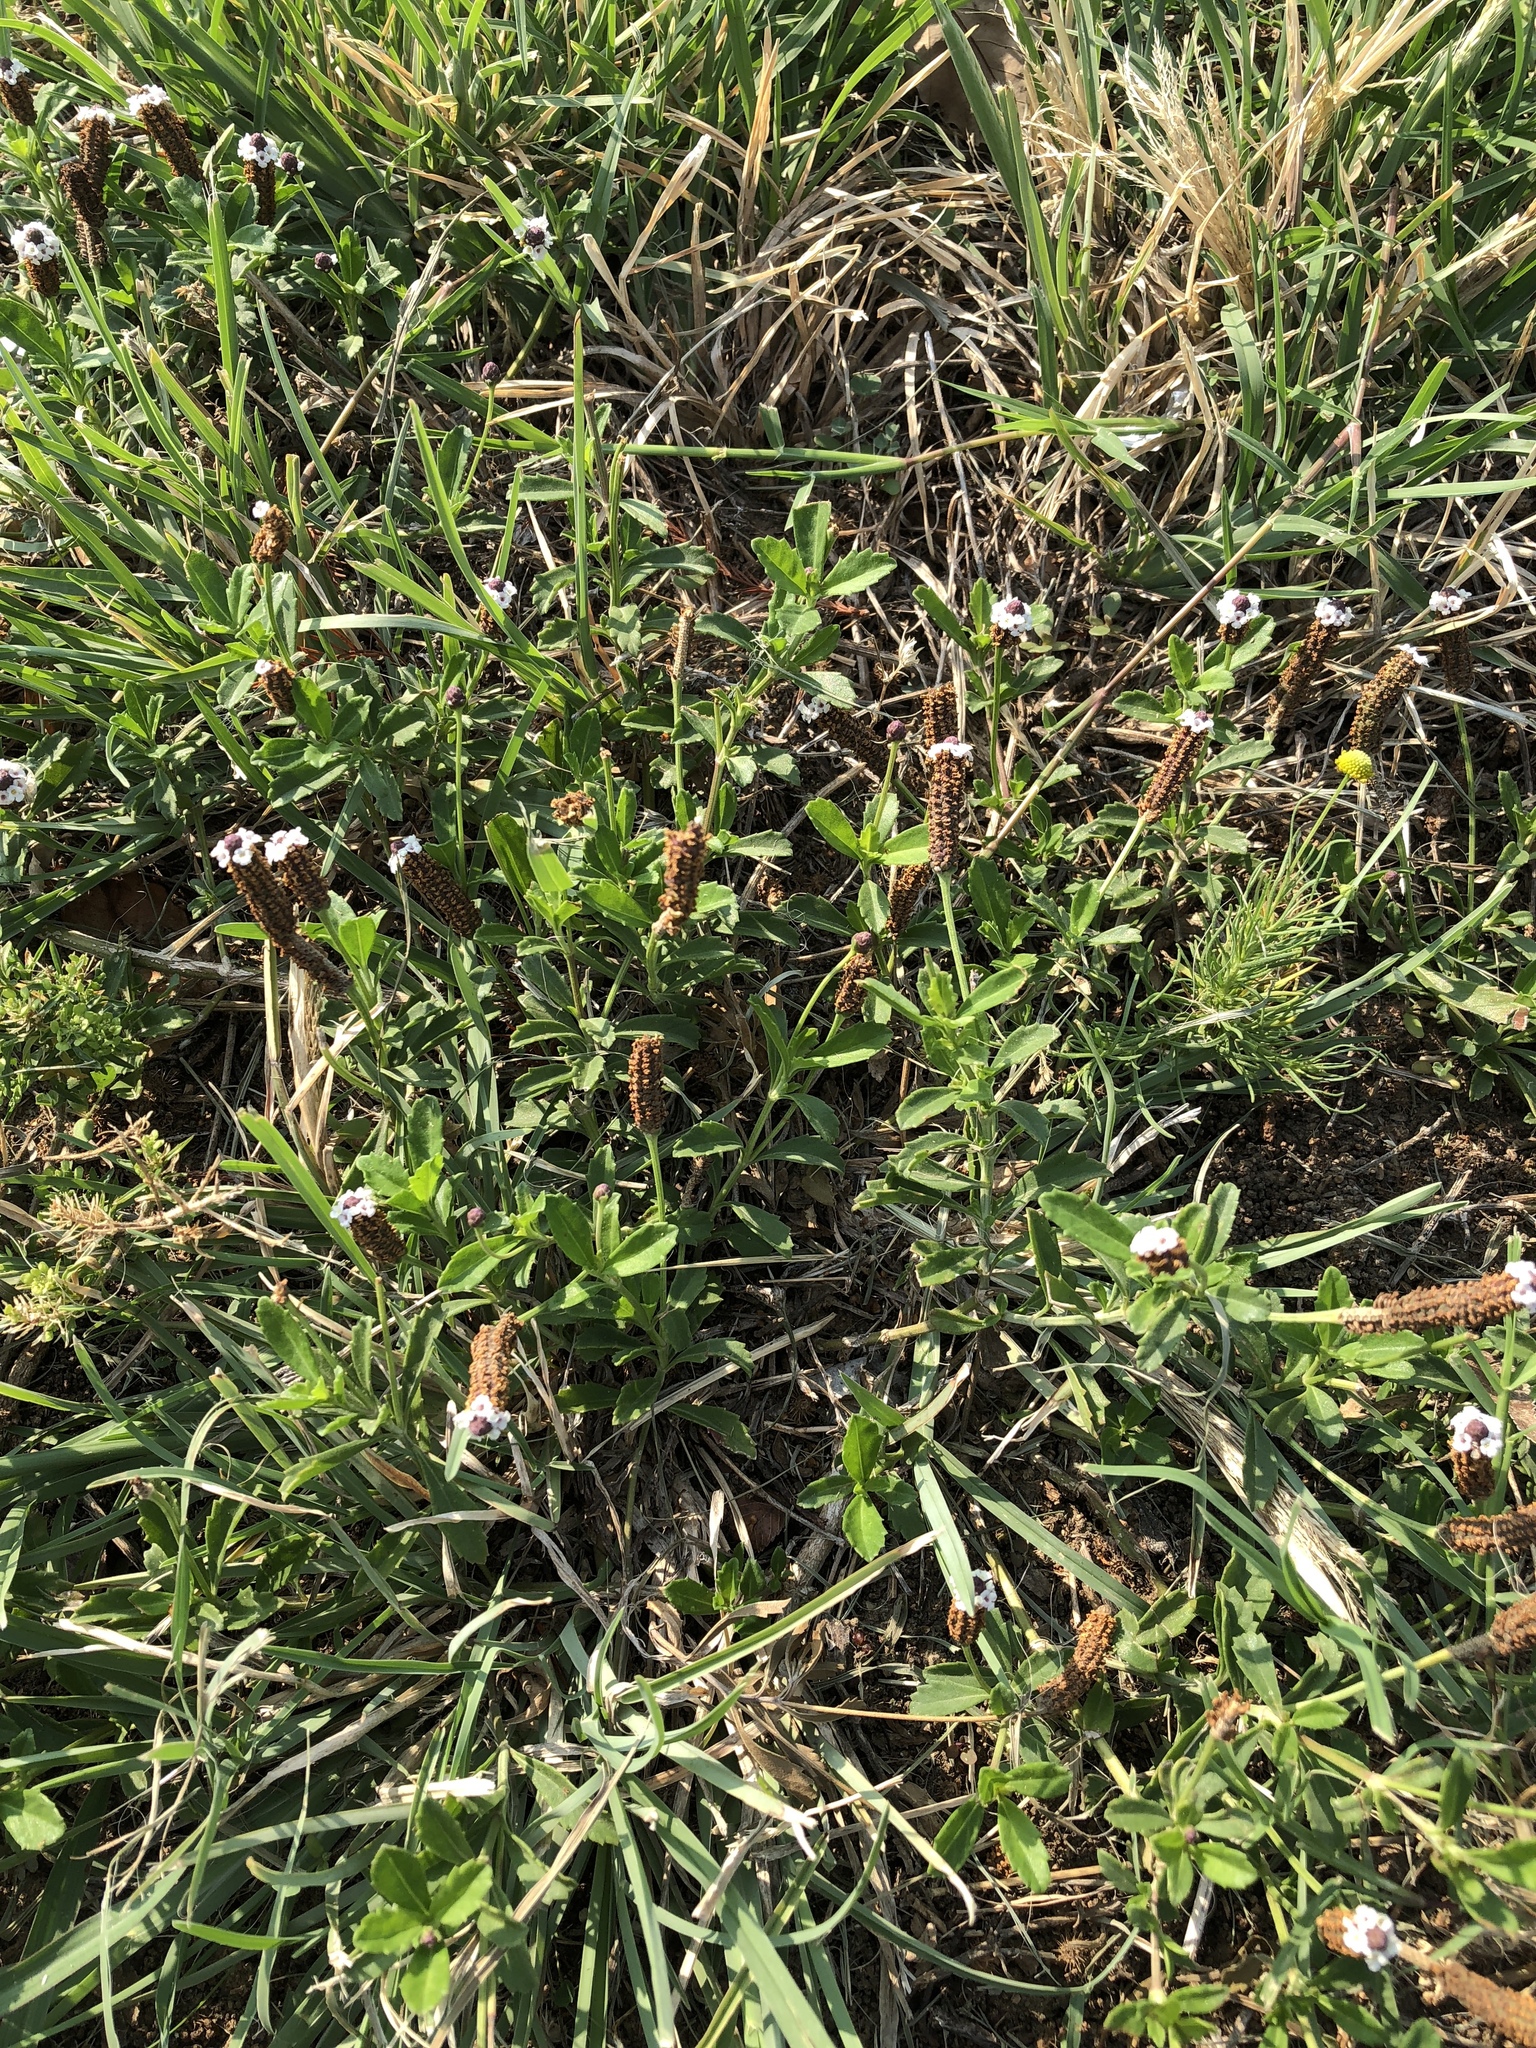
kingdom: Plantae
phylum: Tracheophyta
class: Magnoliopsida
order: Lamiales
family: Verbenaceae
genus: Phyla
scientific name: Phyla nodiflora
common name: Frogfruit
